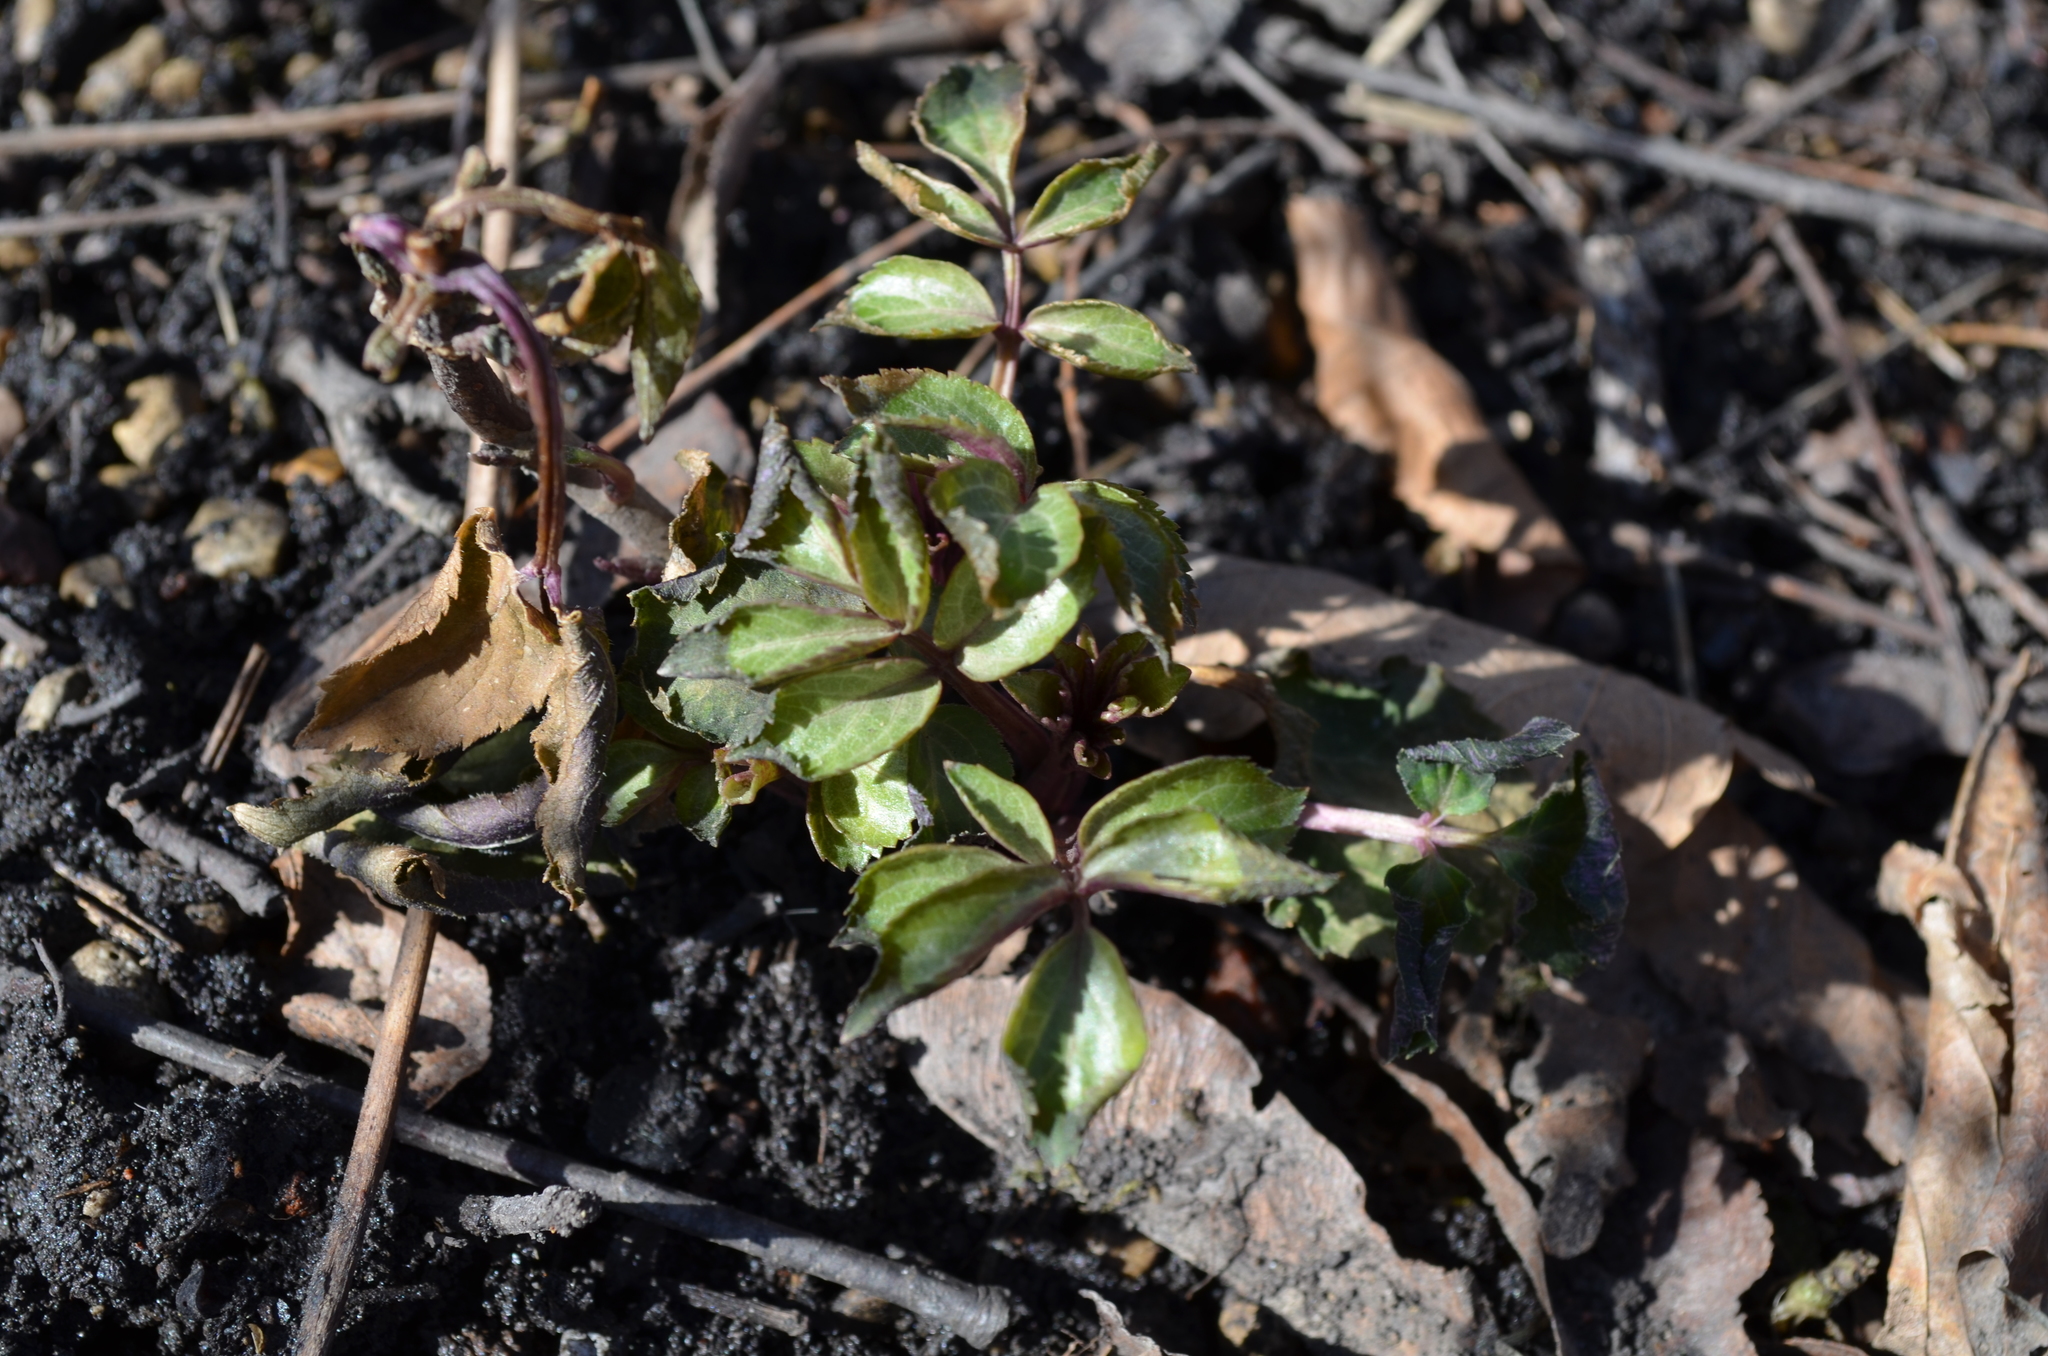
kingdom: Plantae
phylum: Tracheophyta
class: Magnoliopsida
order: Dipsacales
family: Viburnaceae
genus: Sambucus
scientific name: Sambucus canadensis
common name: American elder
